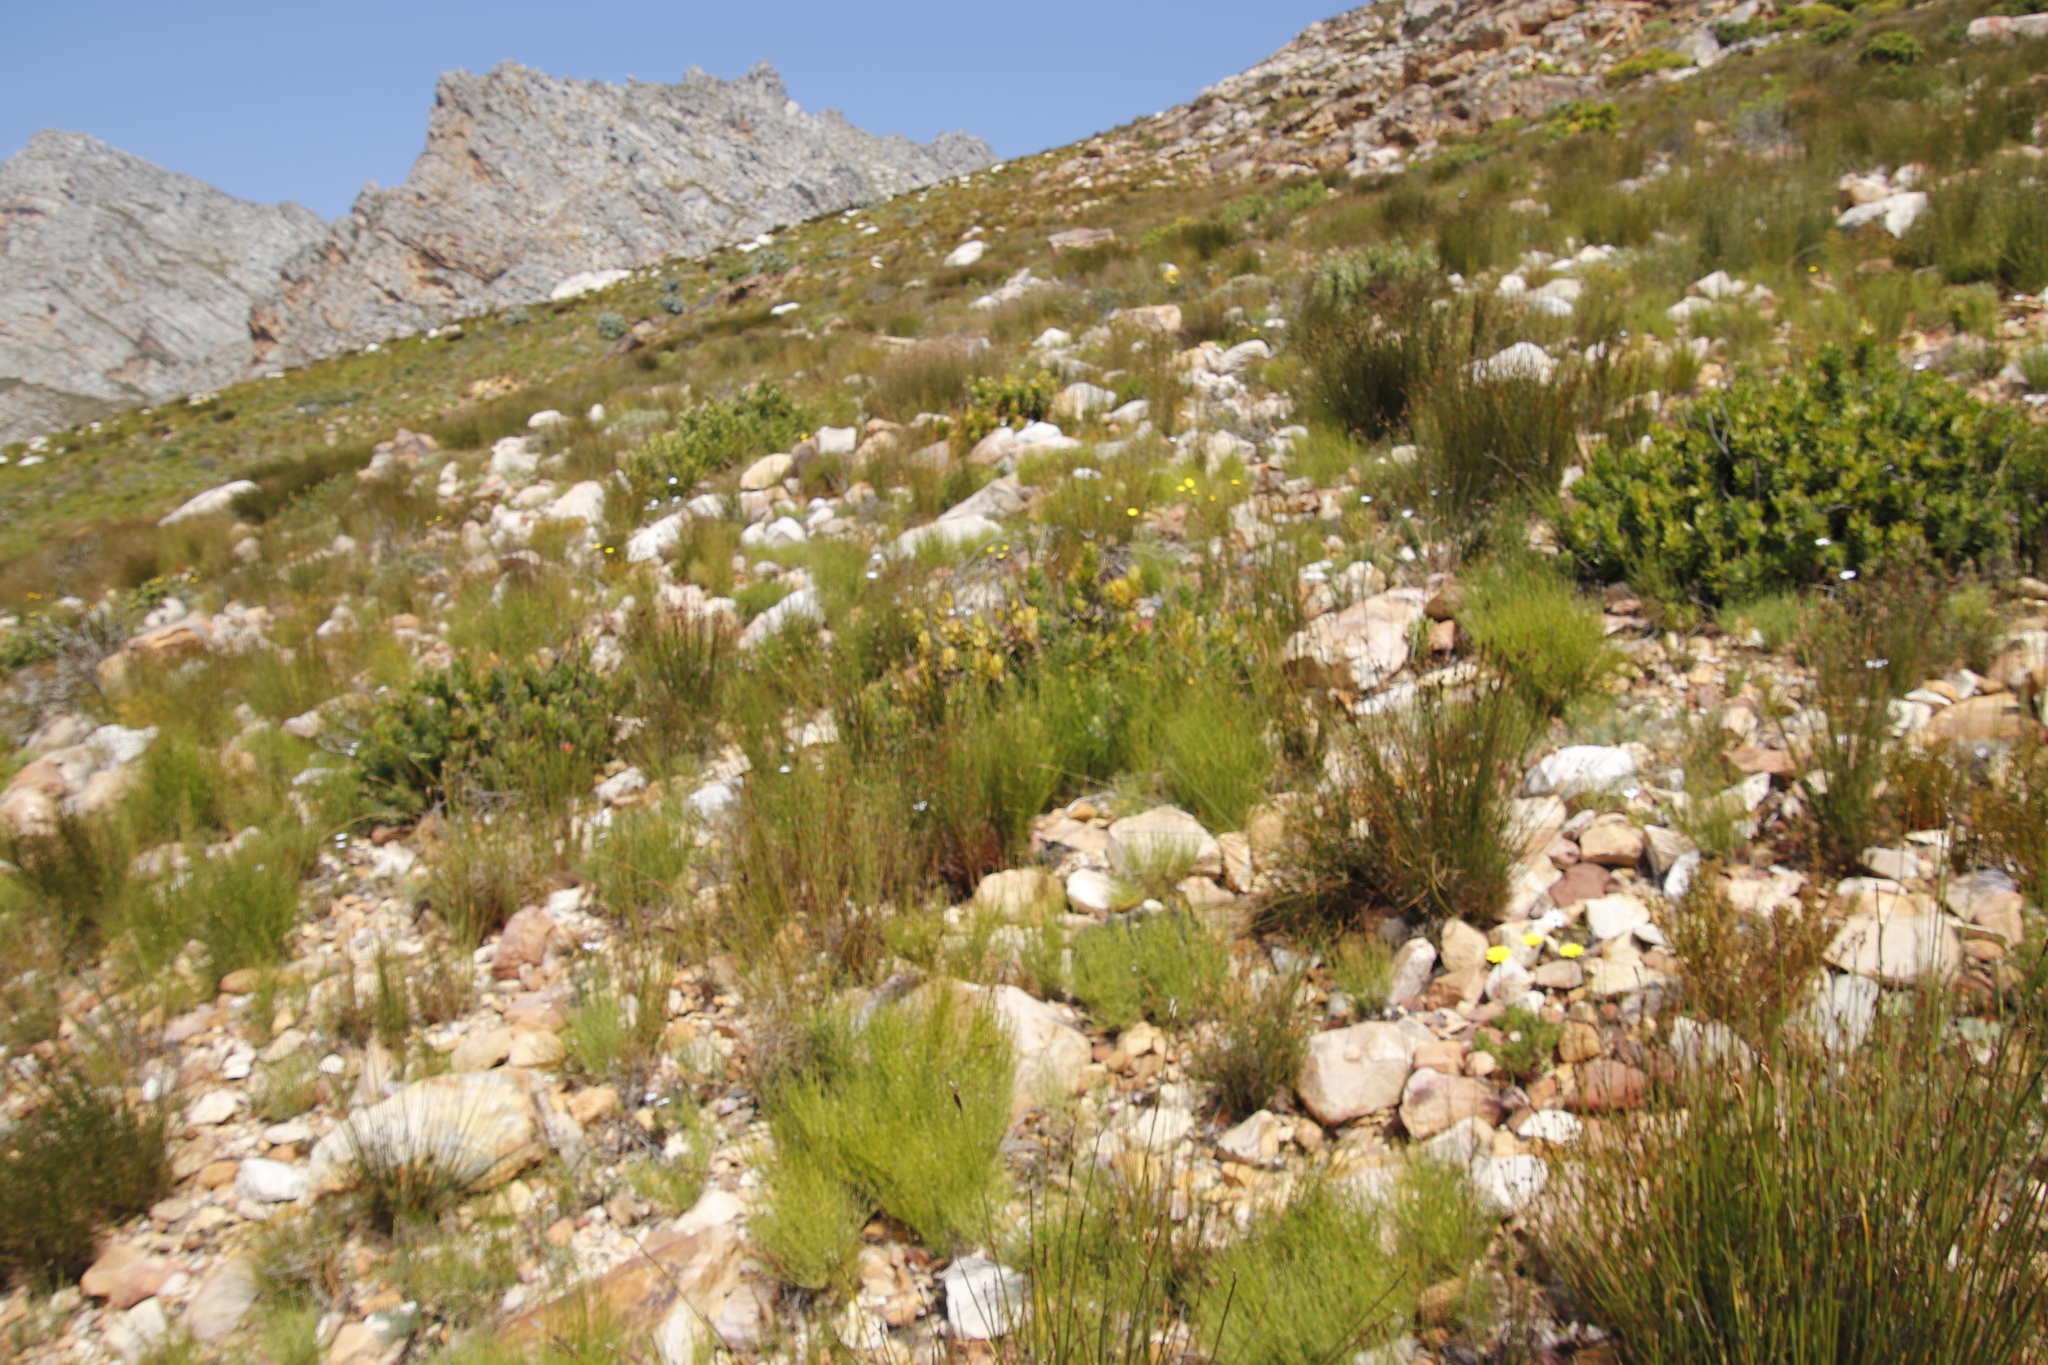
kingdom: Plantae
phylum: Tracheophyta
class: Magnoliopsida
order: Proteales
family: Proteaceae
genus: Mimetes
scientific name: Mimetes cucullatus
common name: Common pagoda
